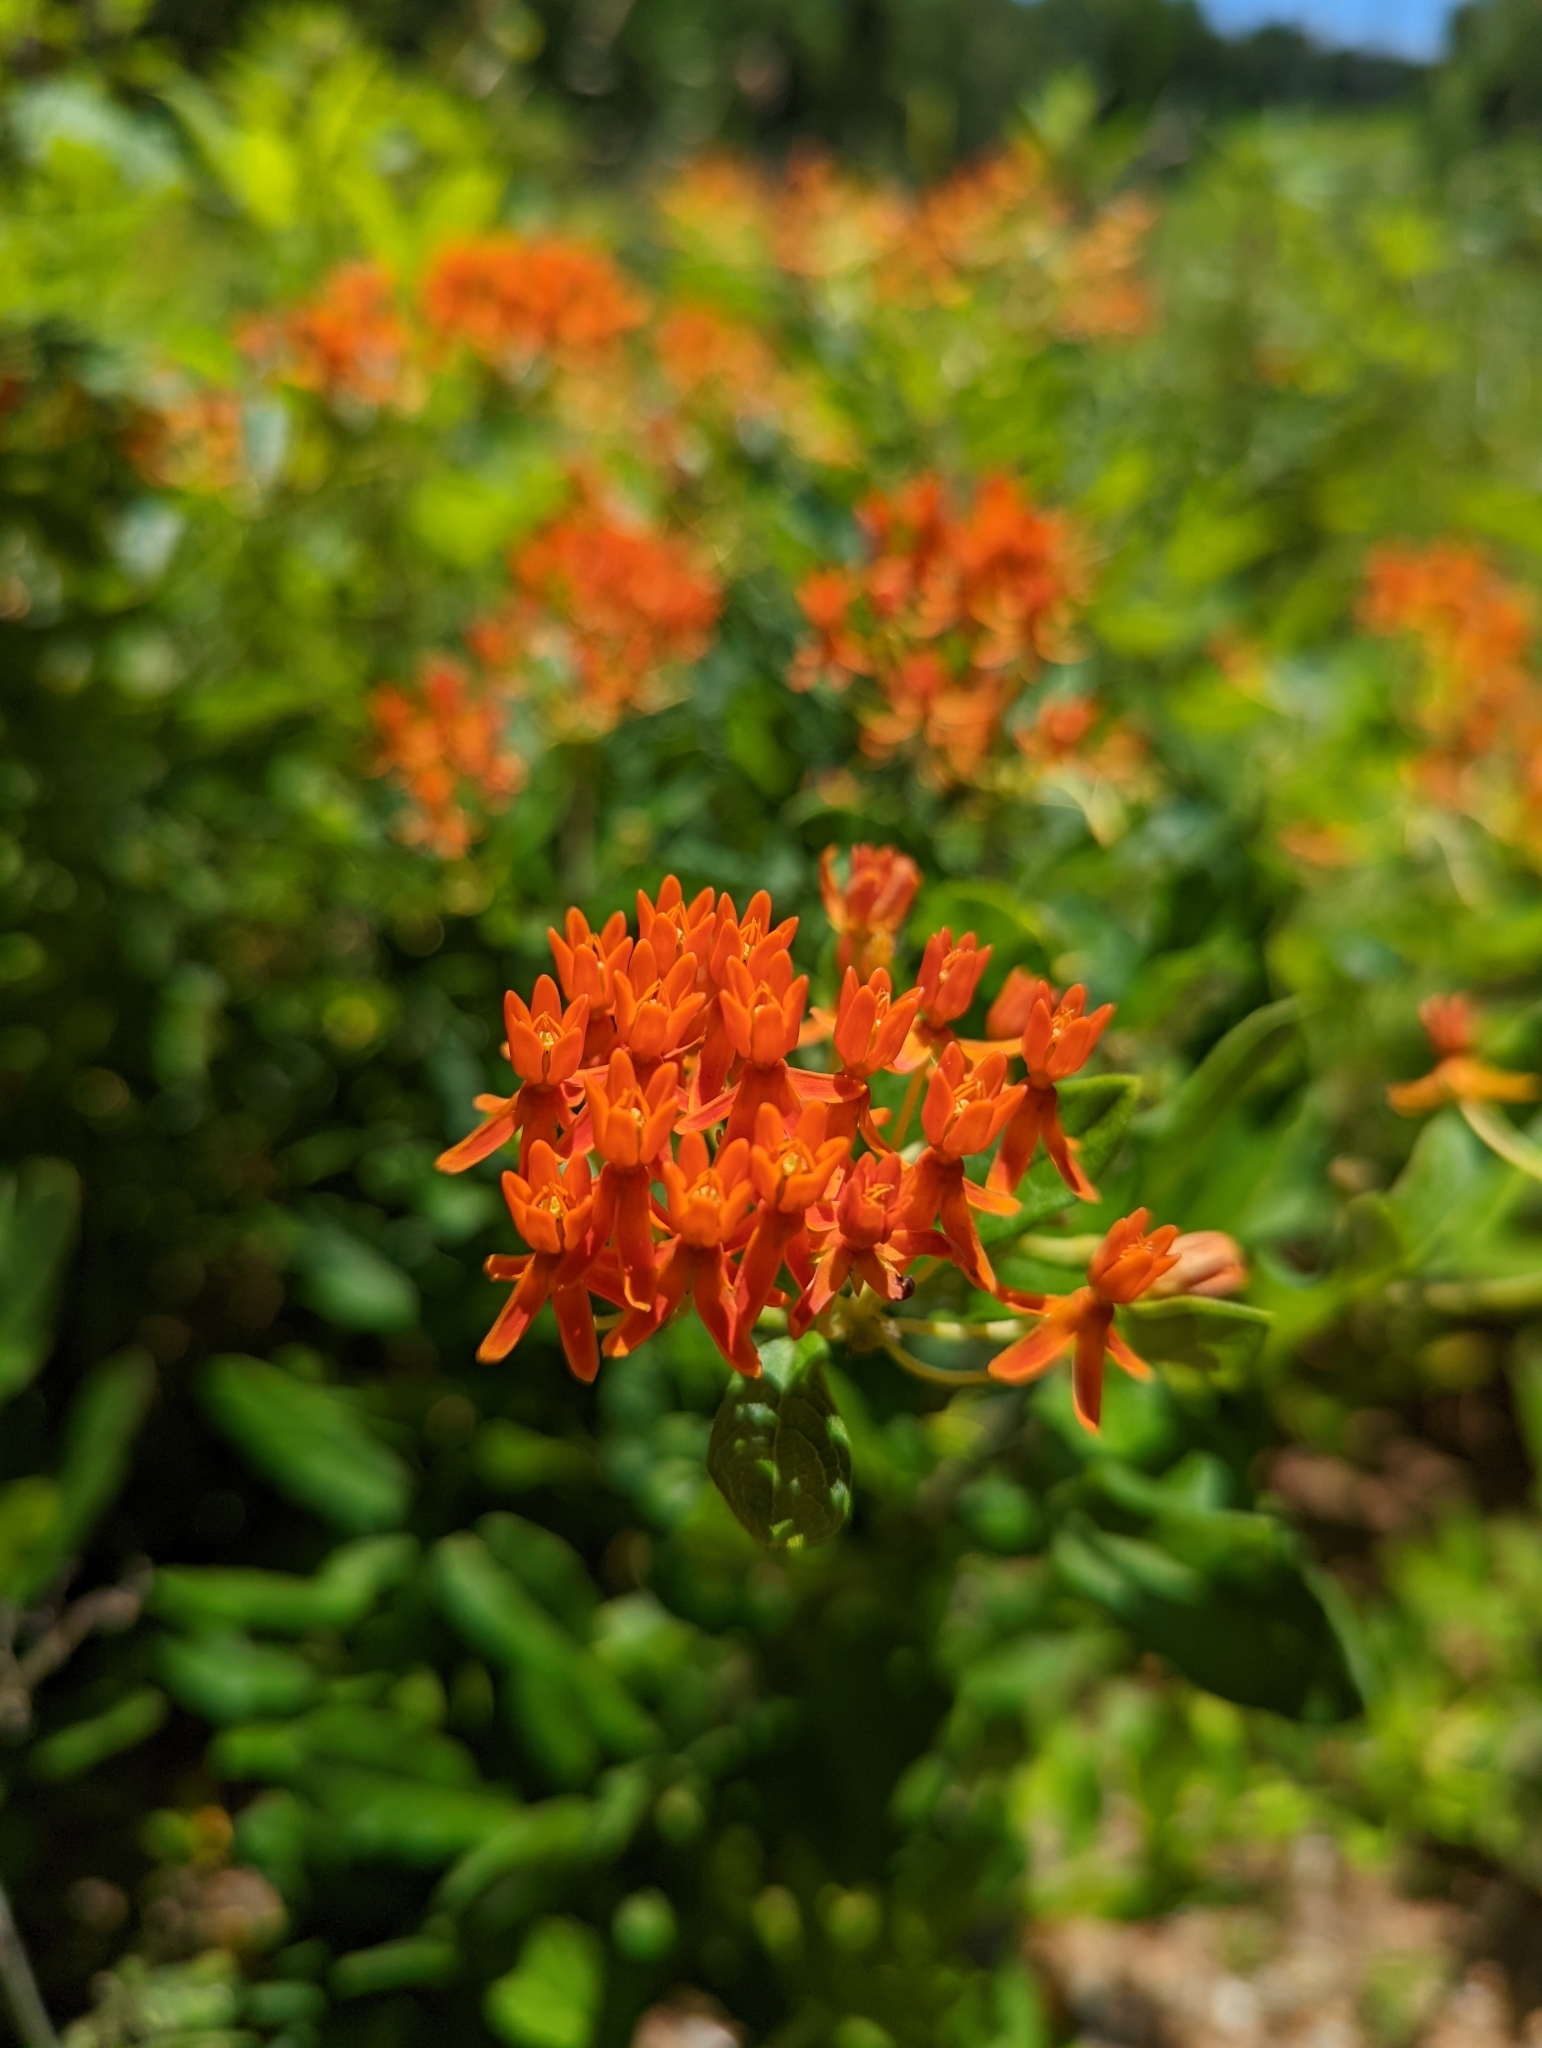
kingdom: Plantae
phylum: Tracheophyta
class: Magnoliopsida
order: Gentianales
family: Apocynaceae
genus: Asclepias
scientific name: Asclepias tuberosa
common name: Butterfly milkweed
